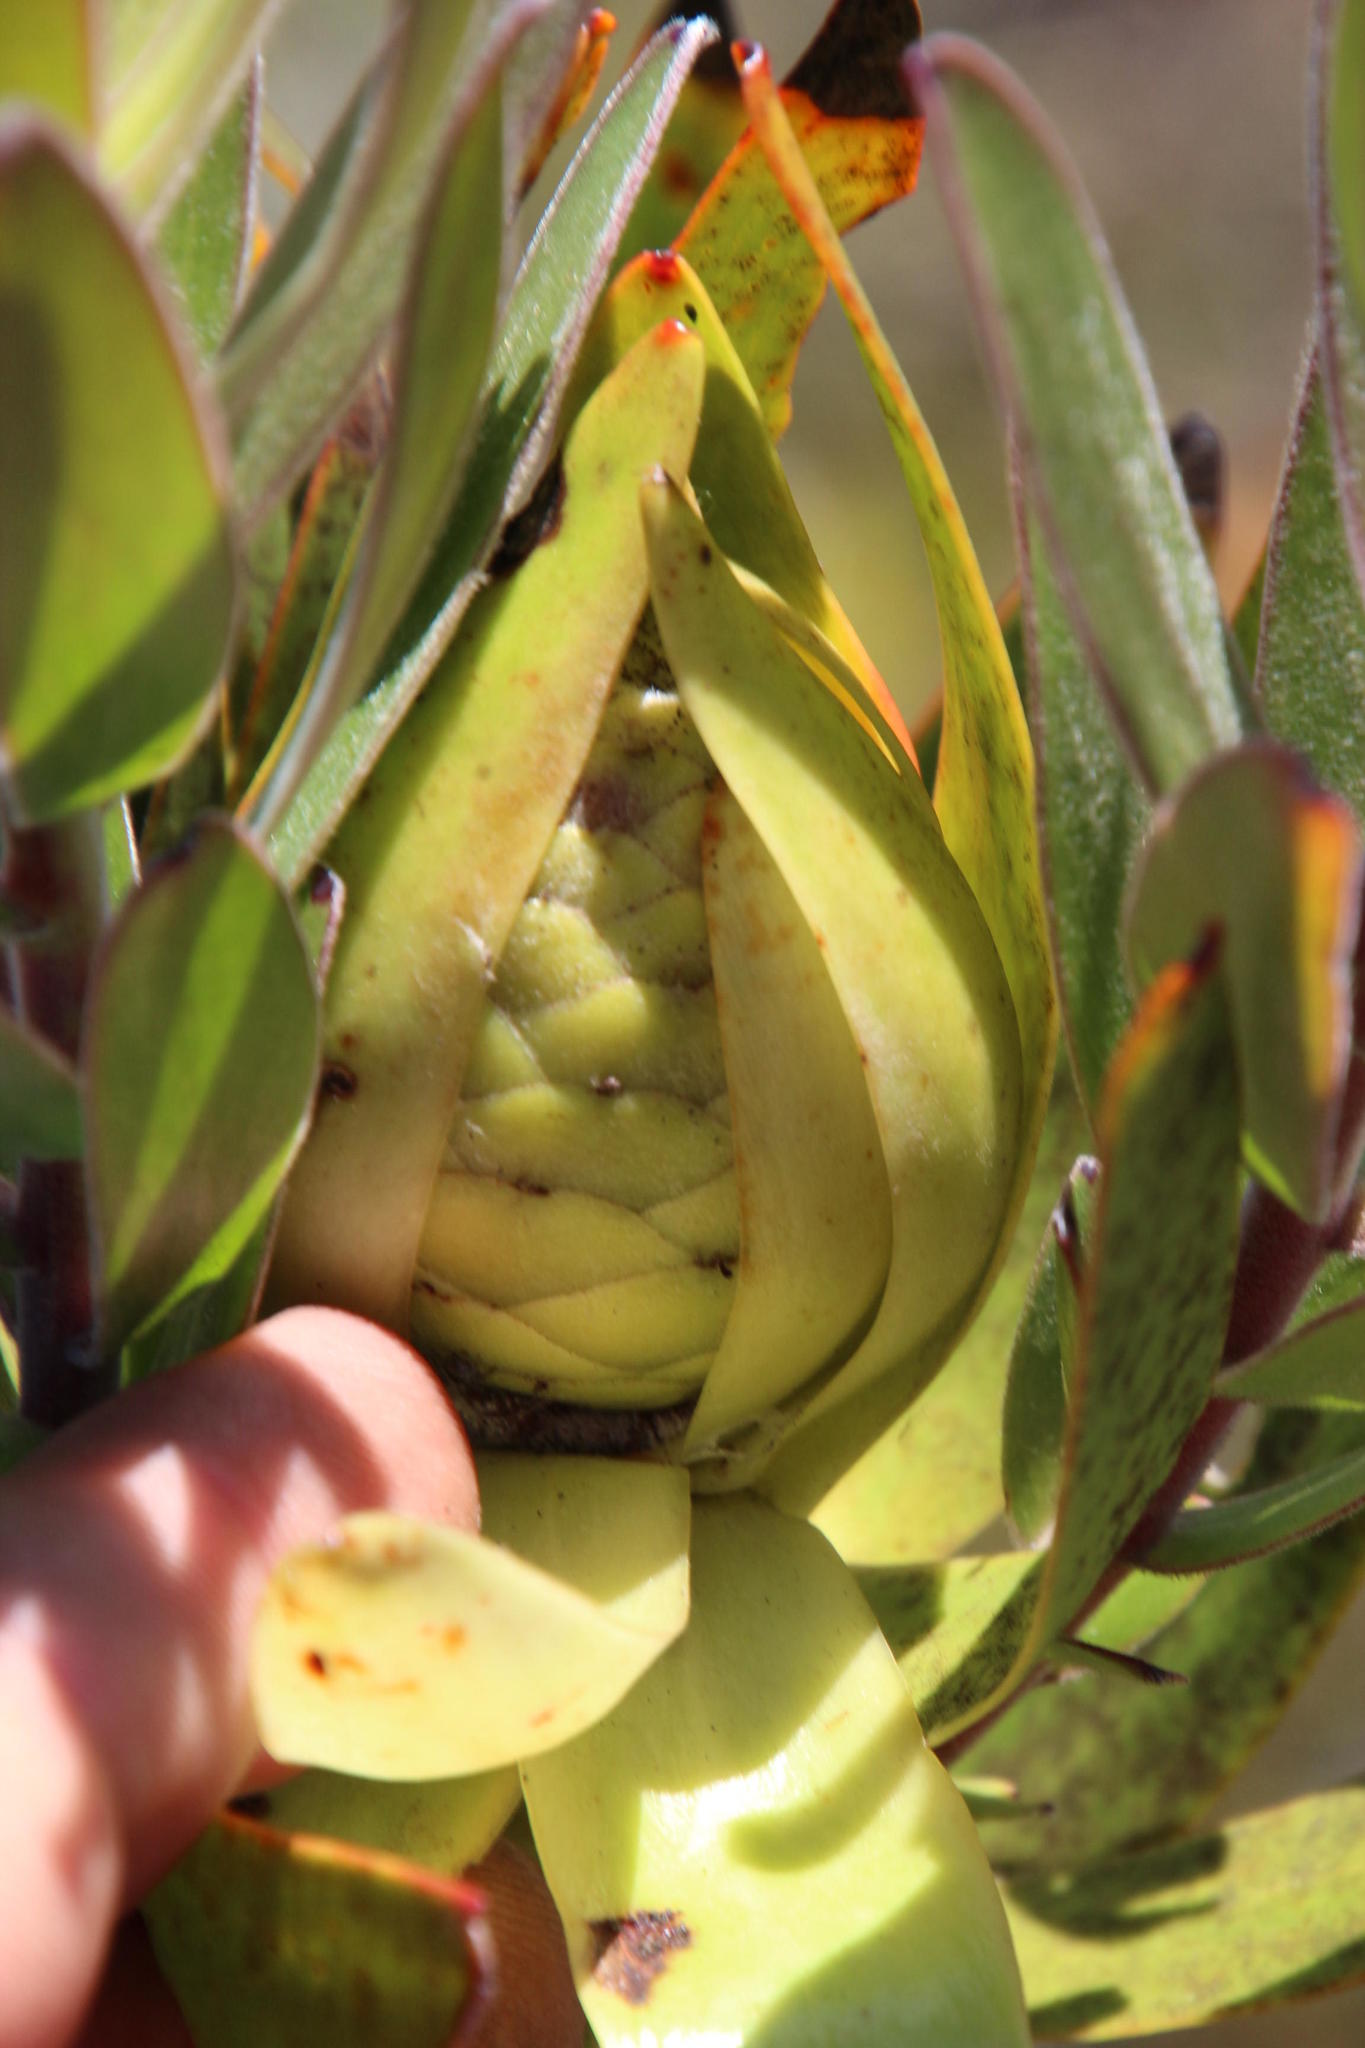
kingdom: Plantae
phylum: Tracheophyta
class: Magnoliopsida
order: Proteales
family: Proteaceae
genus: Leucadendron
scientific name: Leucadendron laureolum
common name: Golden sunshinebush
